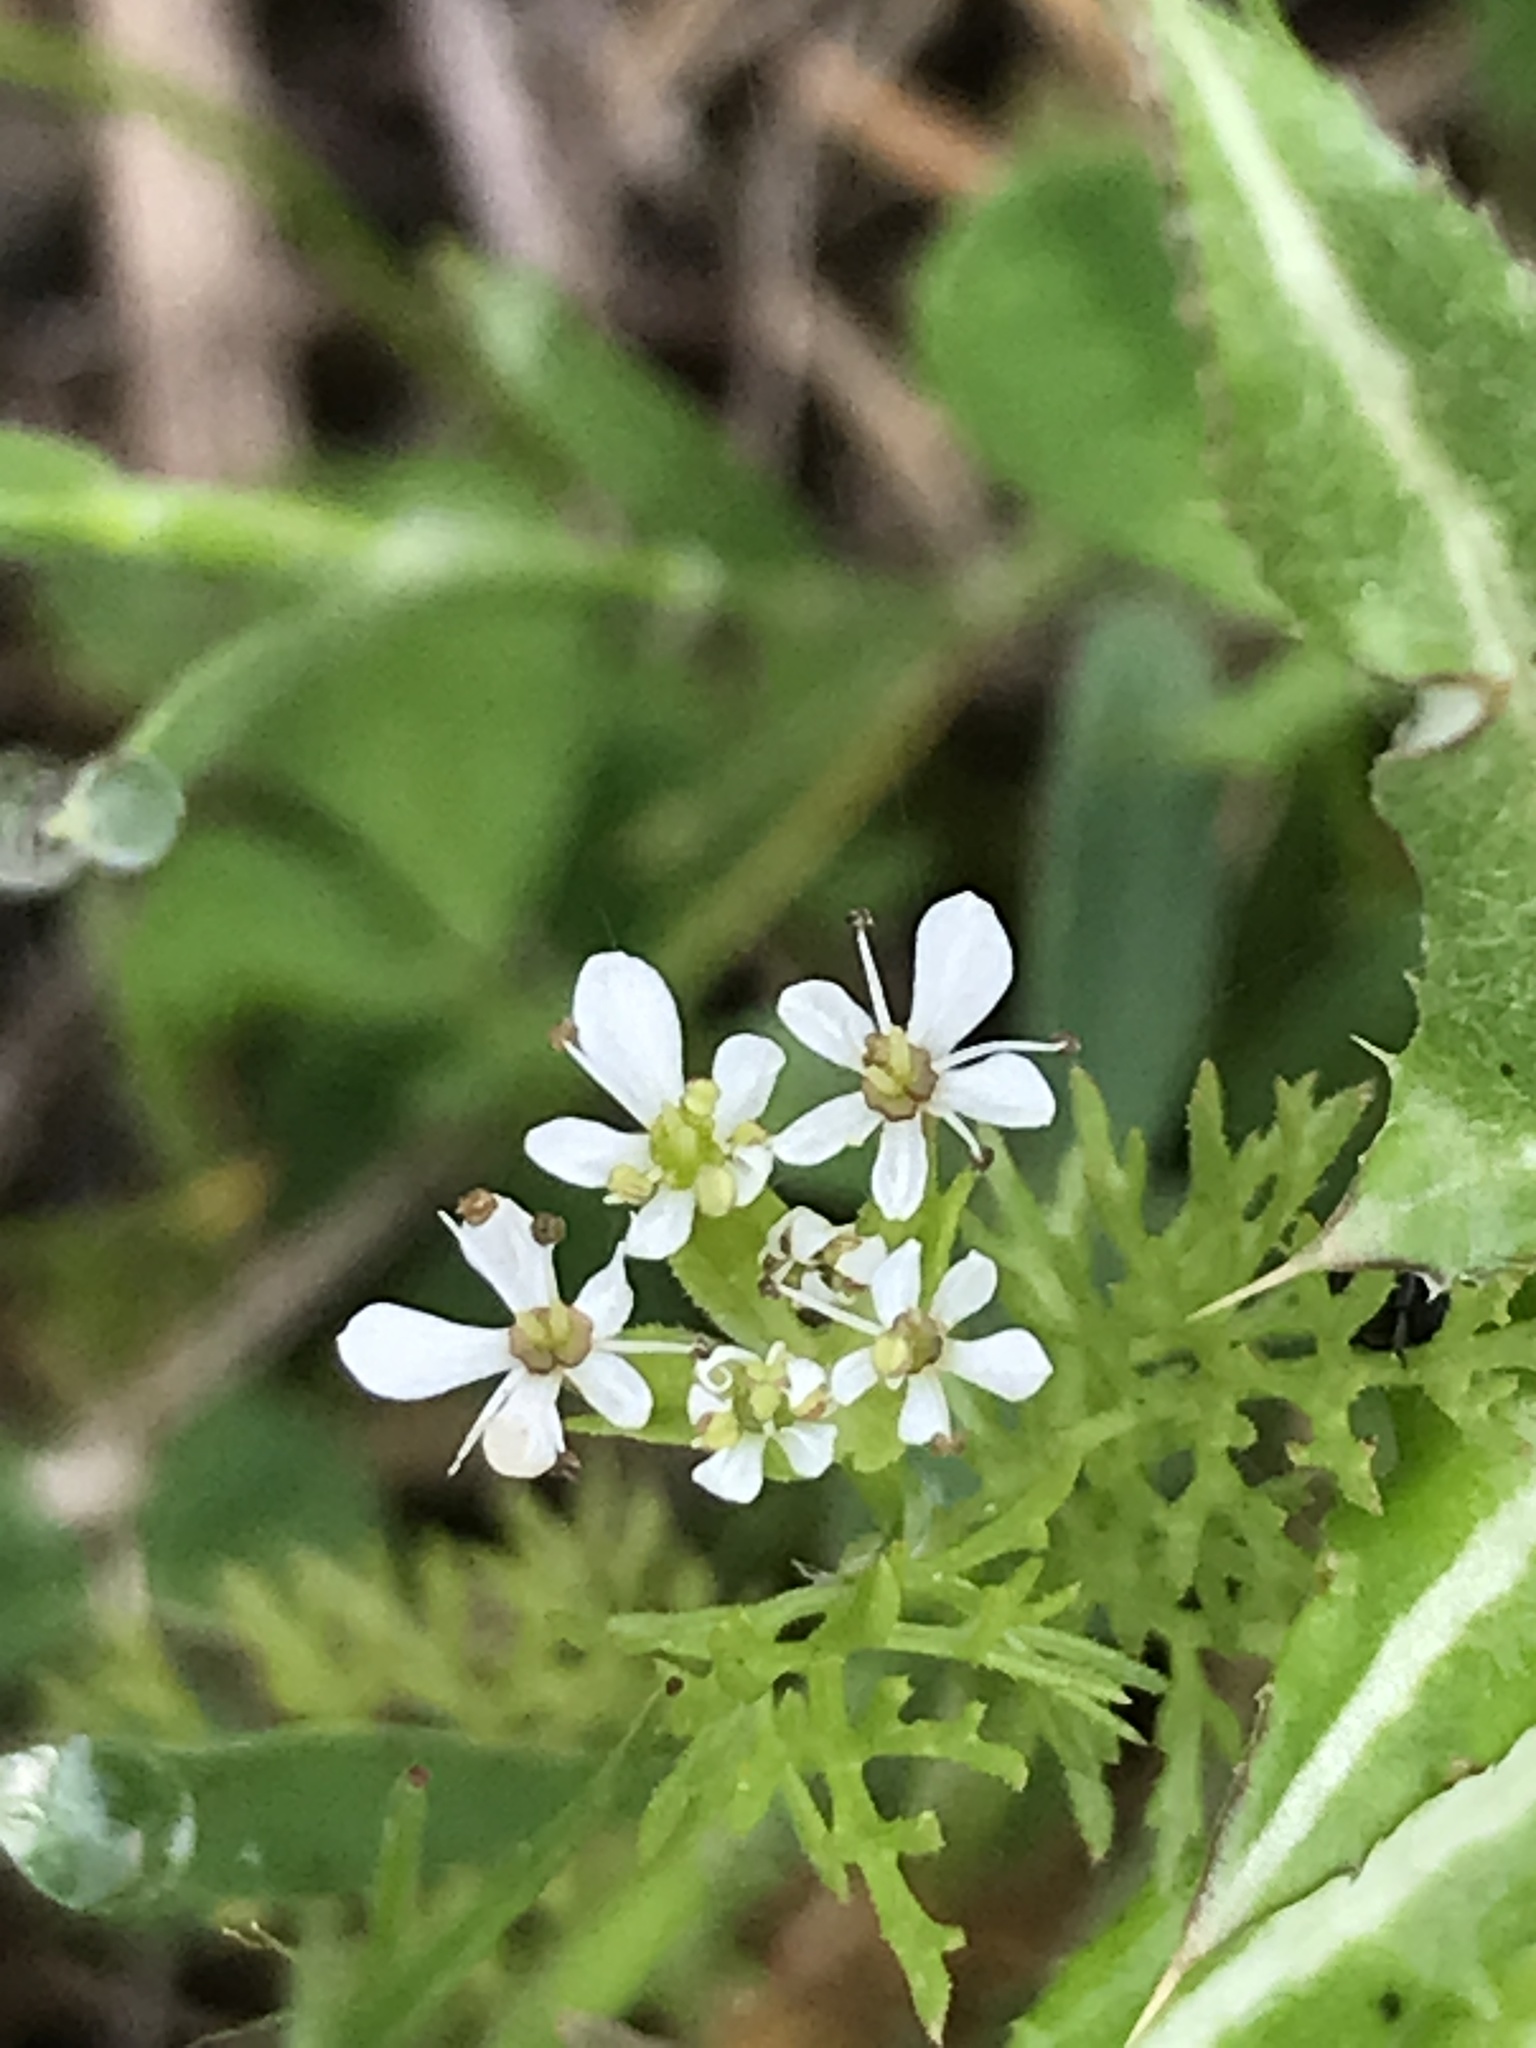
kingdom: Plantae
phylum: Tracheophyta
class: Magnoliopsida
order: Apiales
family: Apiaceae
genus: Scandix
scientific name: Scandix pecten-veneris
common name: Shepherd's-needle
